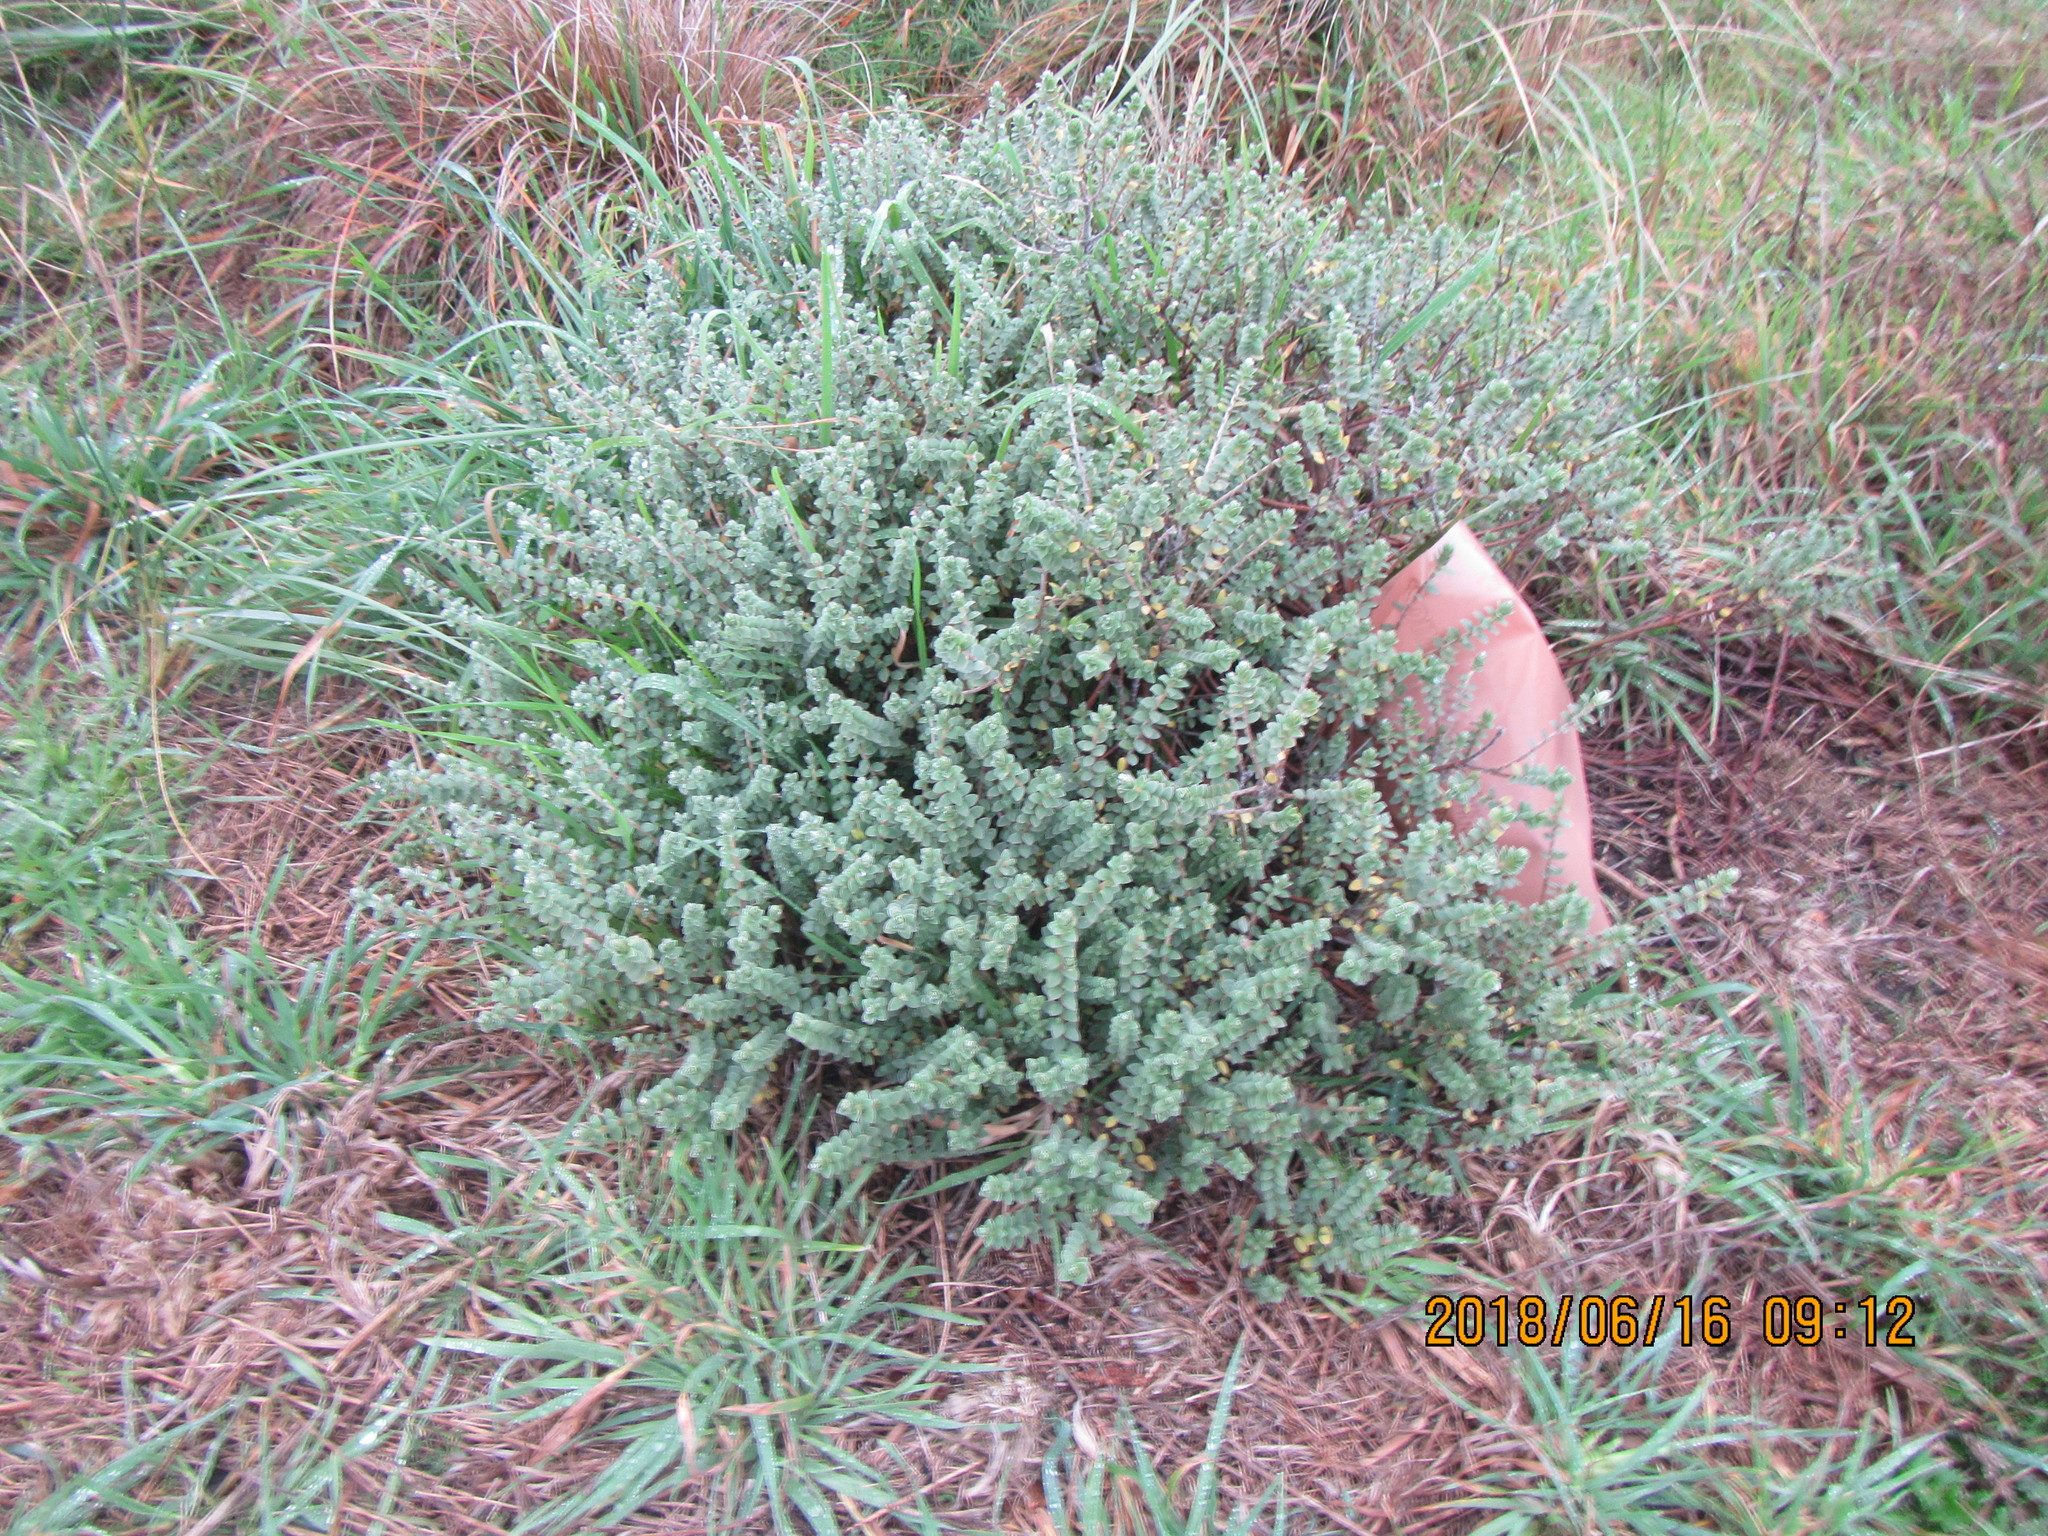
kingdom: Plantae
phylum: Tracheophyta
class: Magnoliopsida
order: Malvales
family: Thymelaeaceae
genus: Pimelea
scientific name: Pimelea villosa
